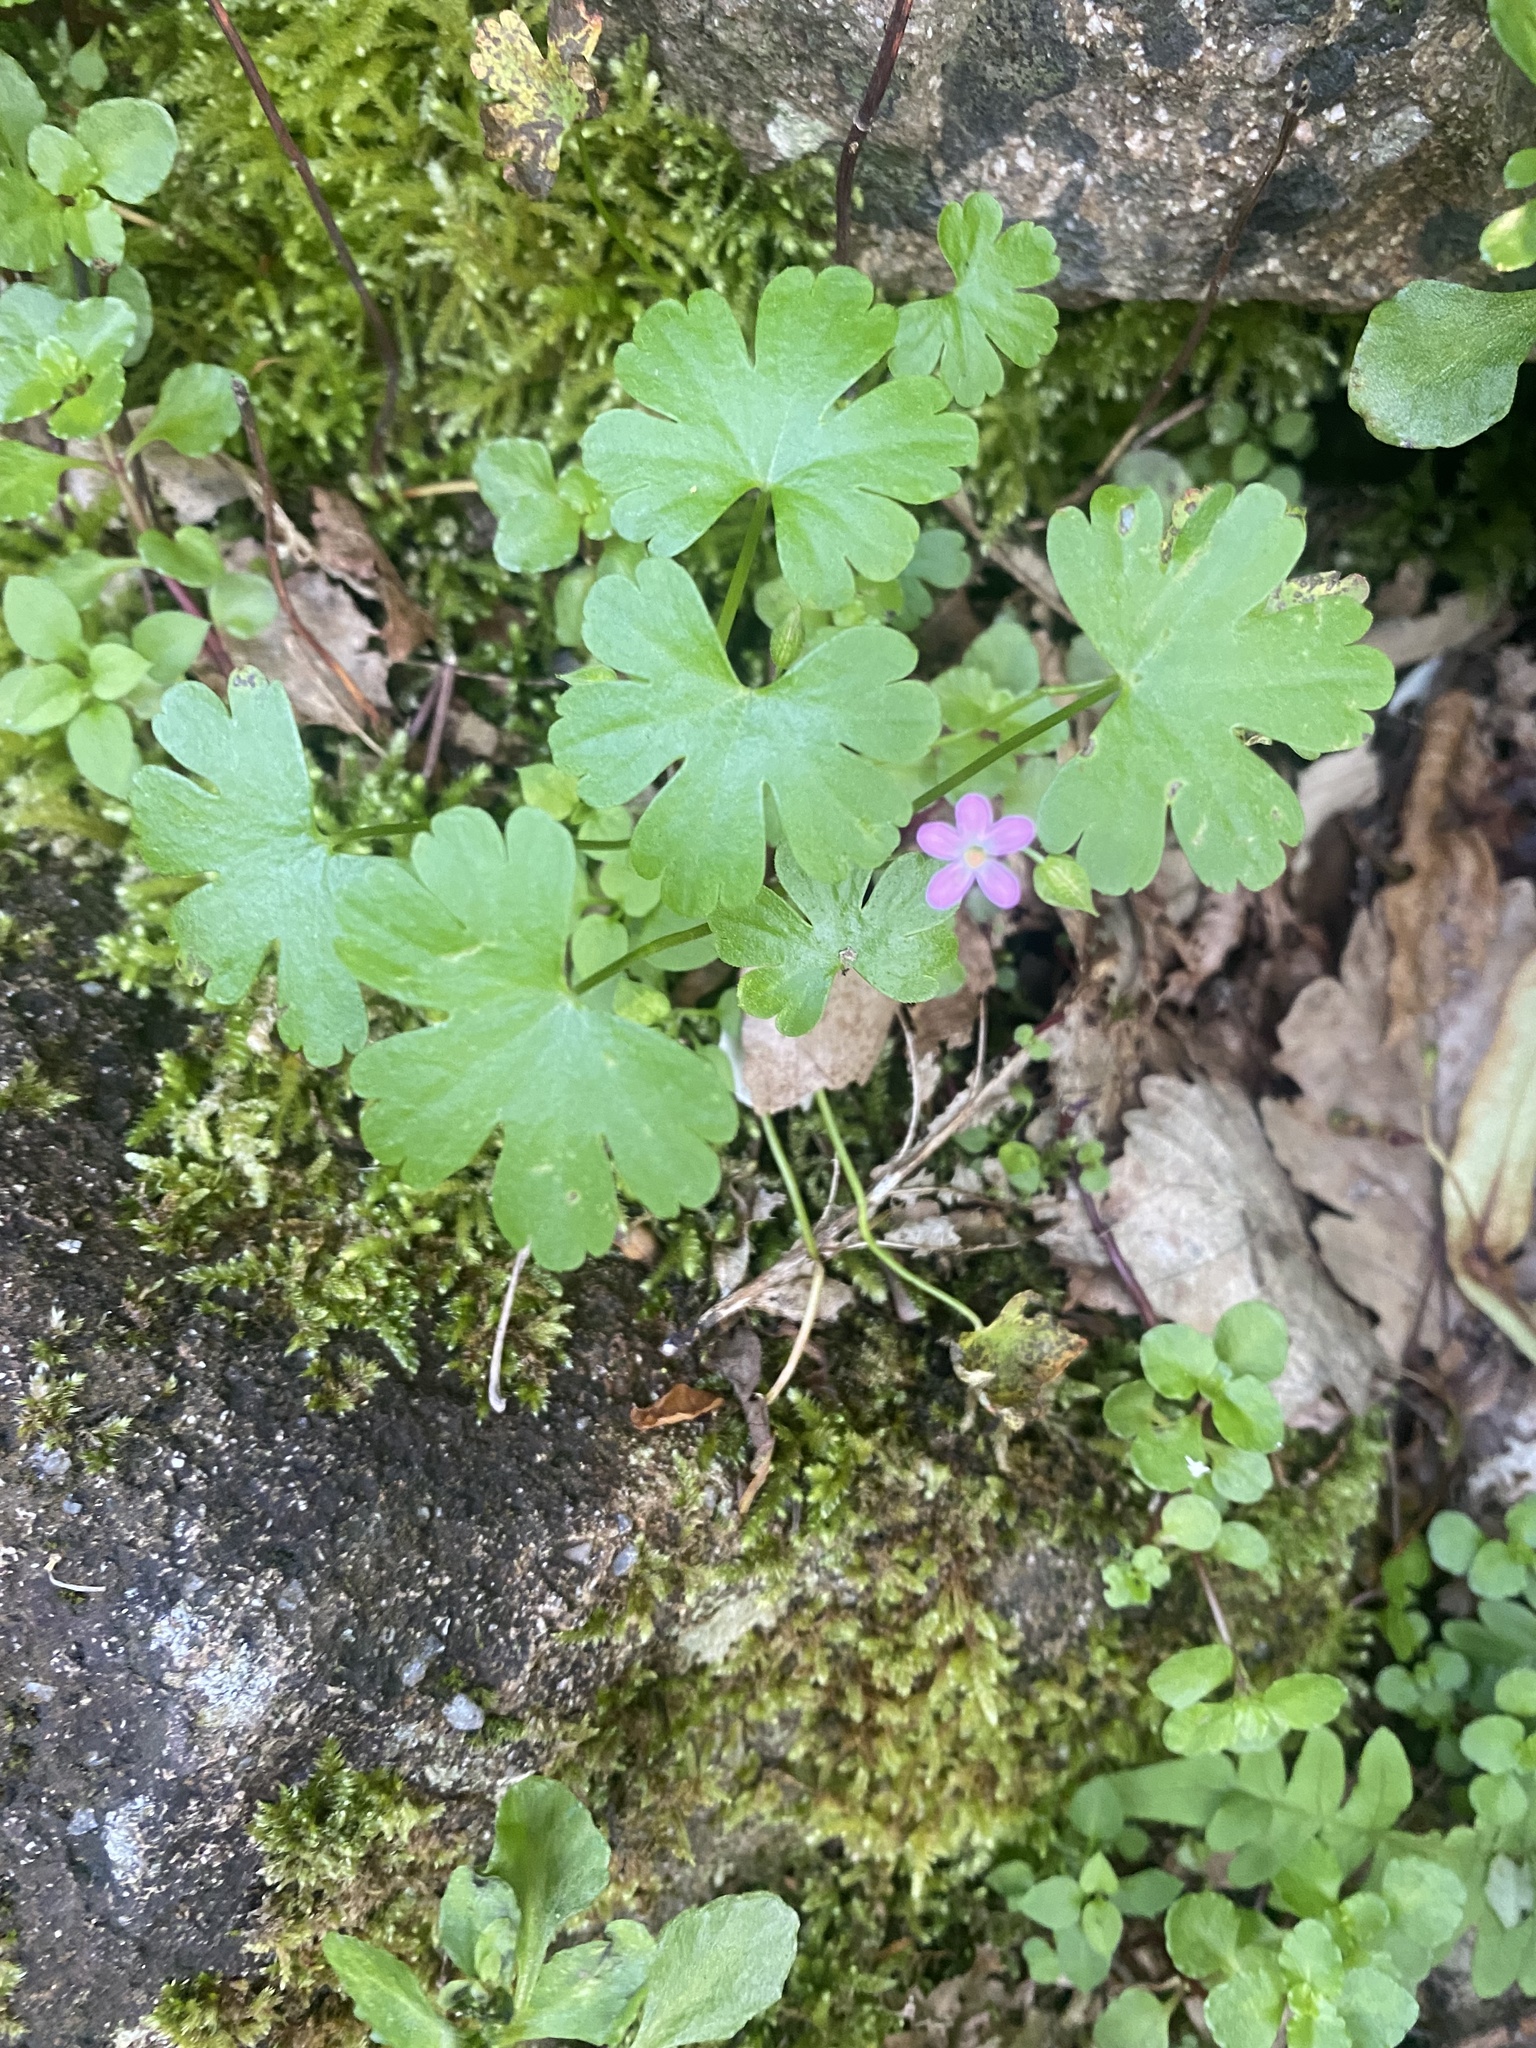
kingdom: Plantae
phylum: Tracheophyta
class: Magnoliopsida
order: Geraniales
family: Geraniaceae
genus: Geranium
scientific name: Geranium lucidum
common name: Shining crane's-bill
